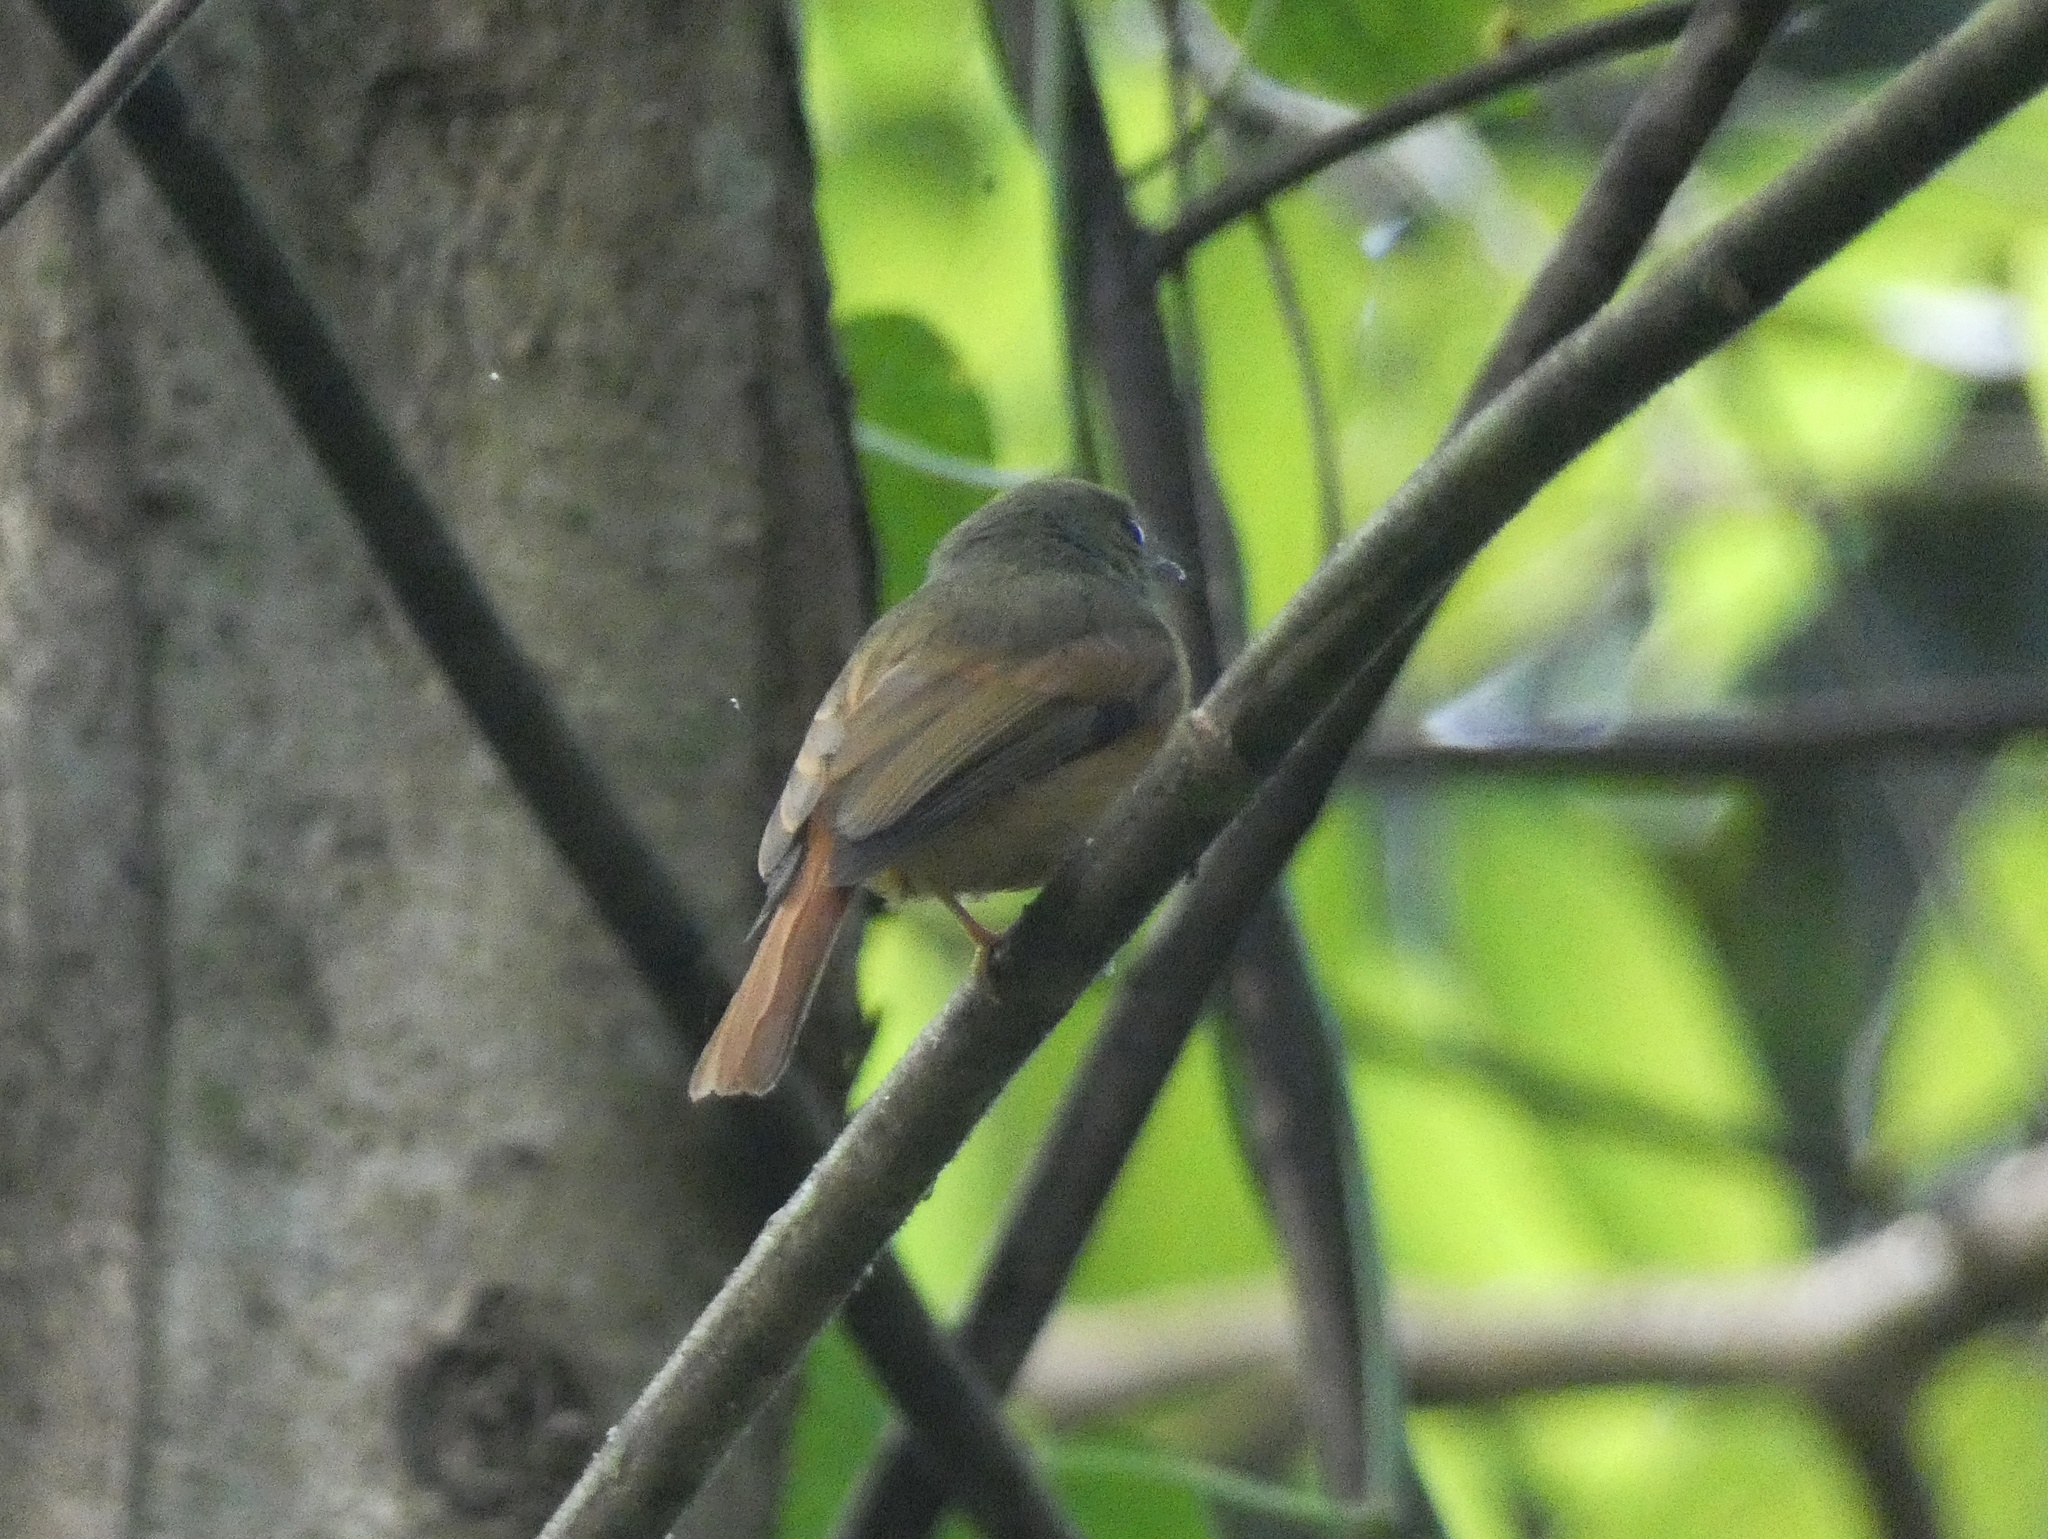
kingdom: Animalia
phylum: Chordata
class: Aves
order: Passeriformes
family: Tyrannidae
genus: Mionectes
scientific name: Mionectes oleagineus
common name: Ochre-bellied flycatcher
